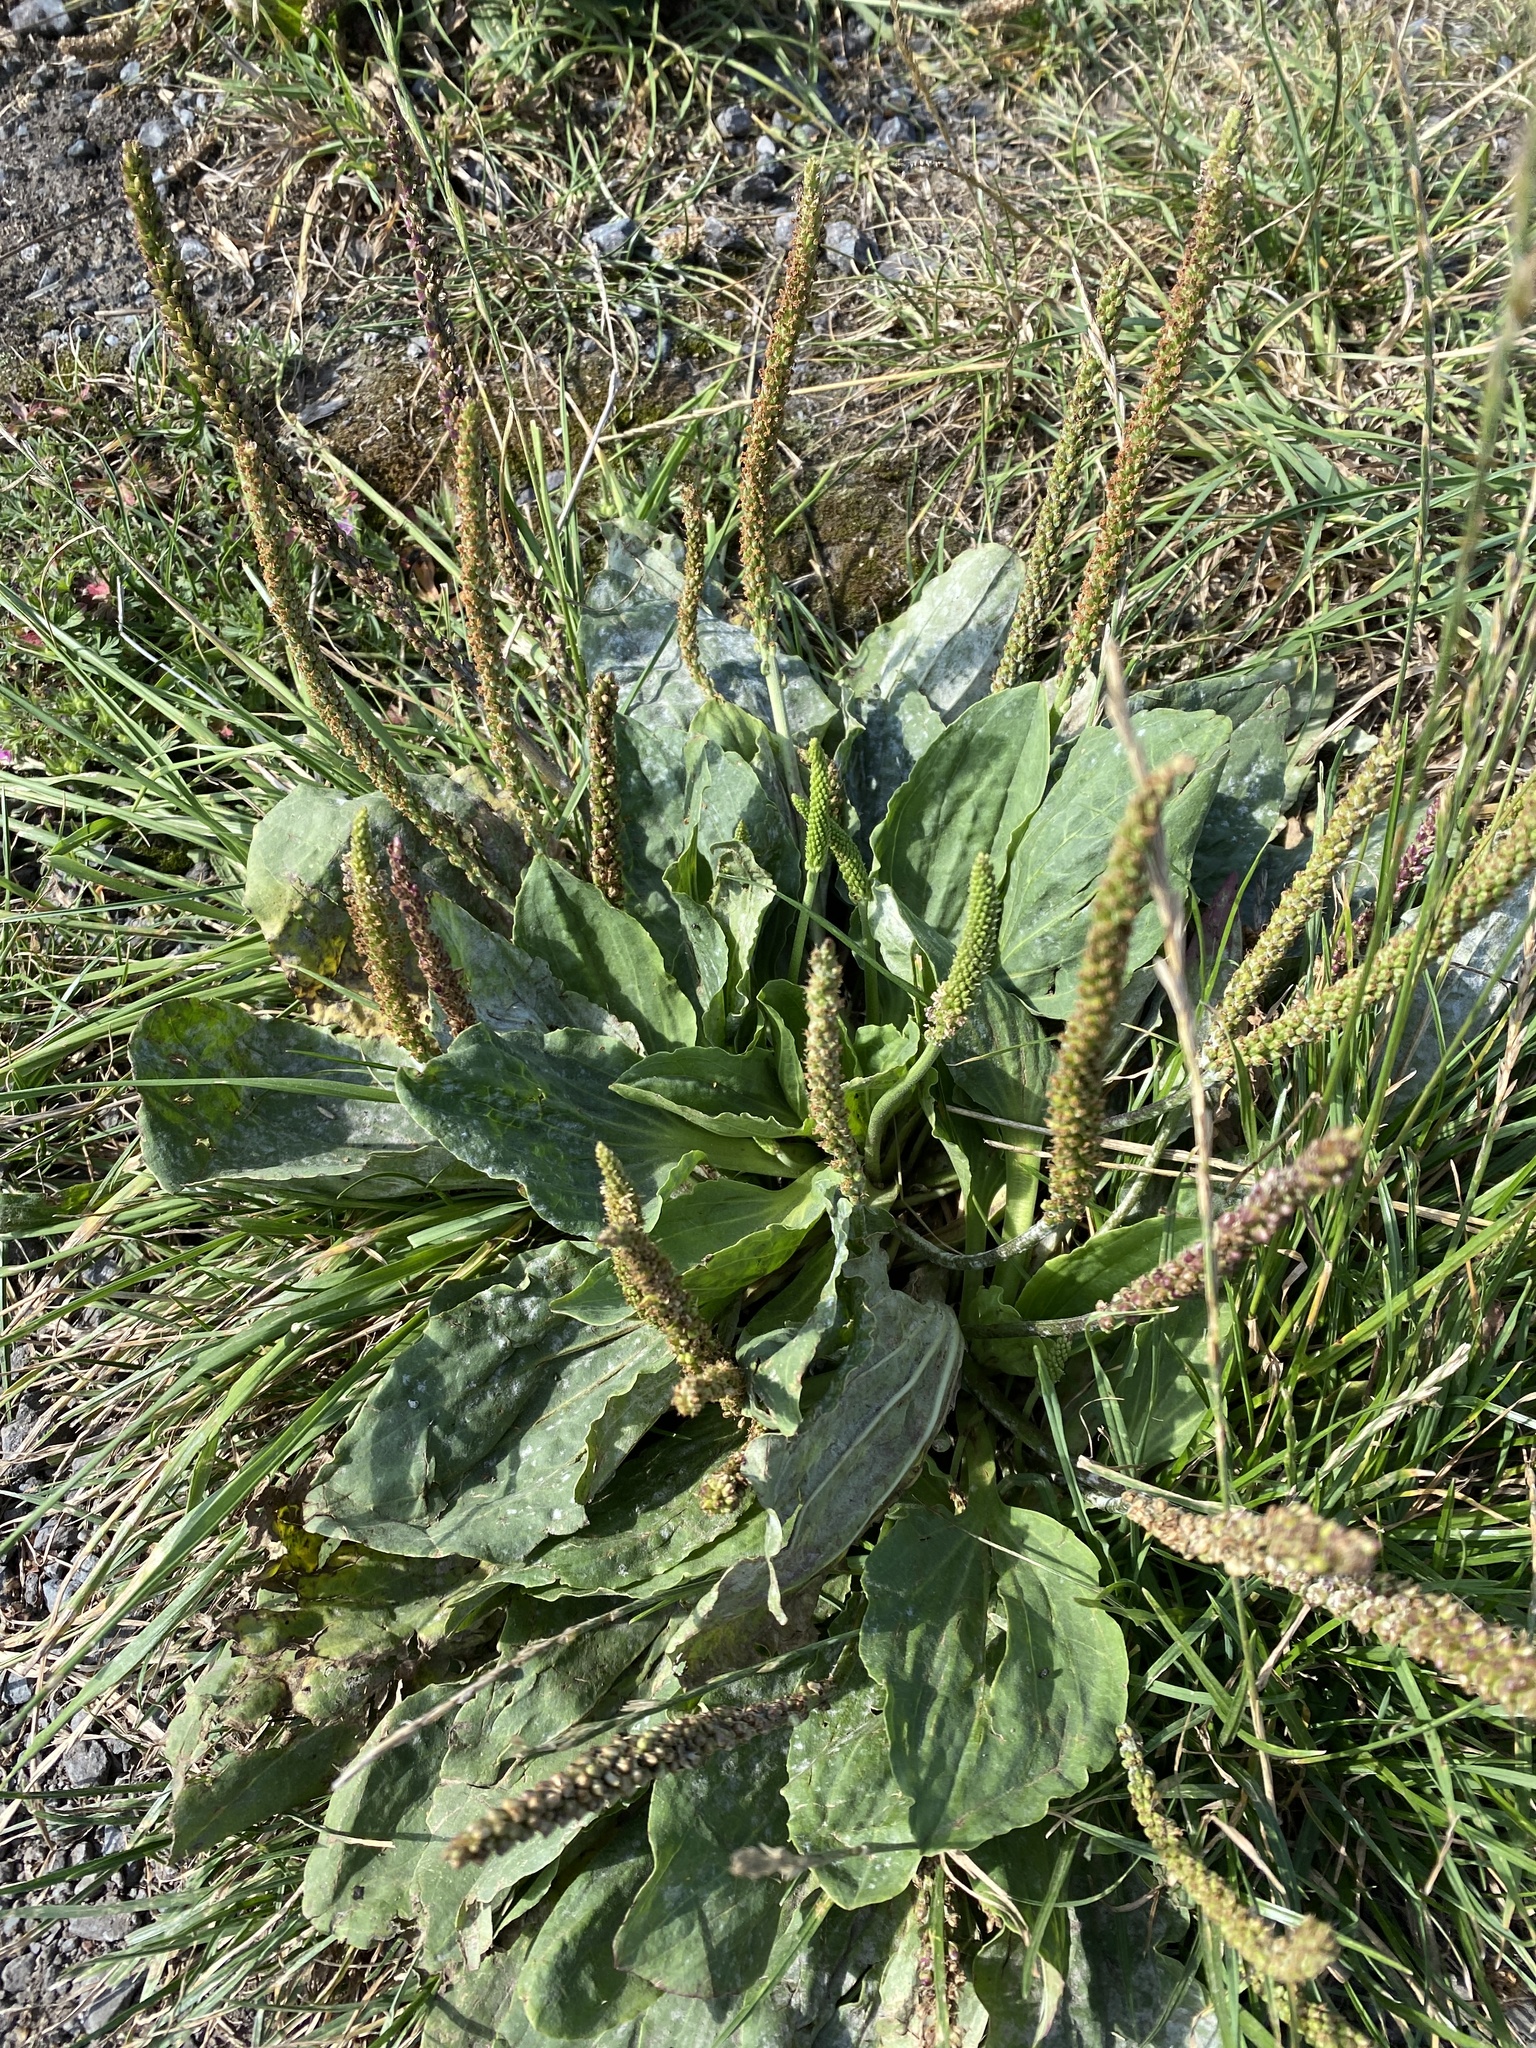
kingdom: Plantae
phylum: Tracheophyta
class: Magnoliopsida
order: Lamiales
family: Plantaginaceae
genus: Plantago
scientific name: Plantago major
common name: Common plantain
